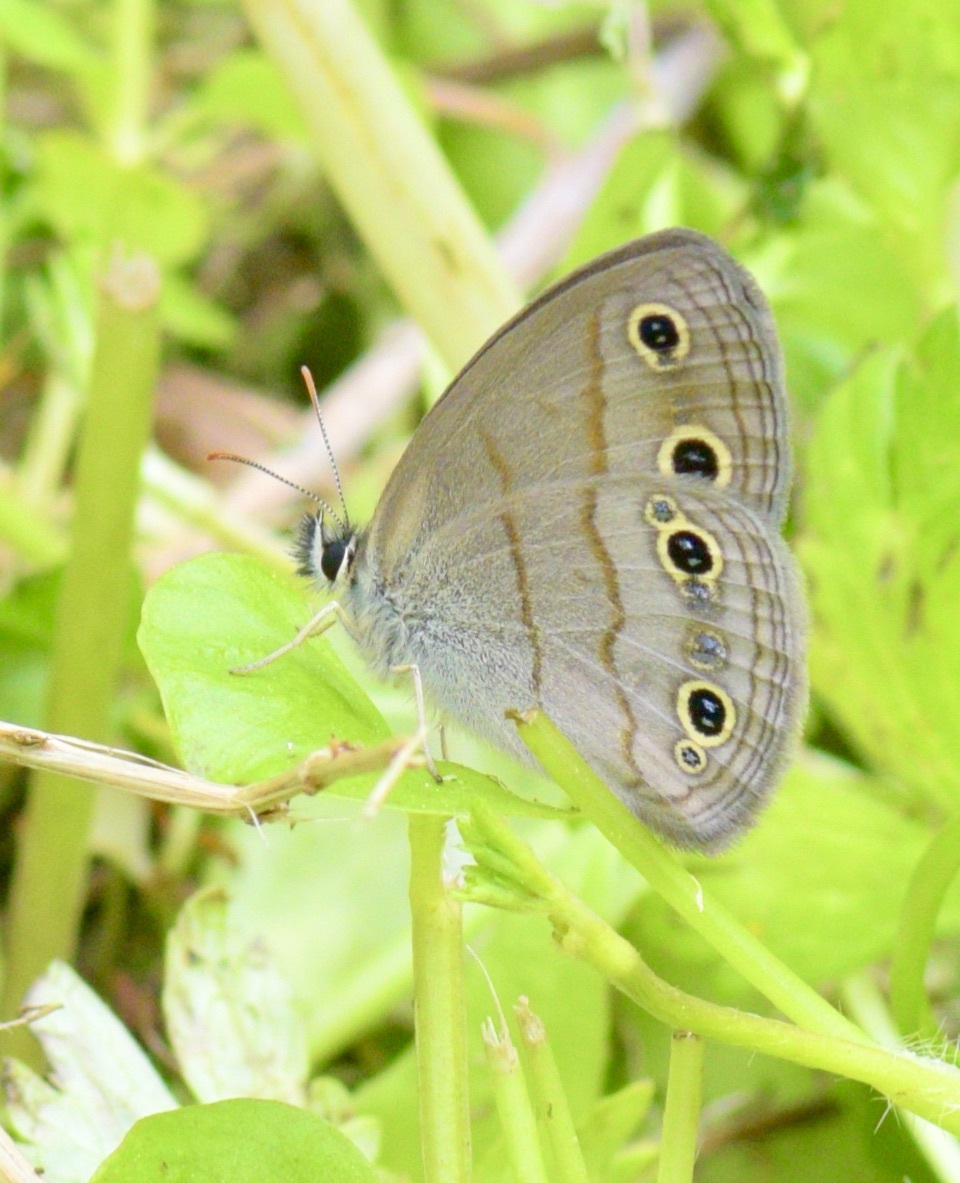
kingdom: Animalia
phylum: Arthropoda
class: Insecta
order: Lepidoptera
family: Nymphalidae
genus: Euptychia
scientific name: Euptychia cymela
